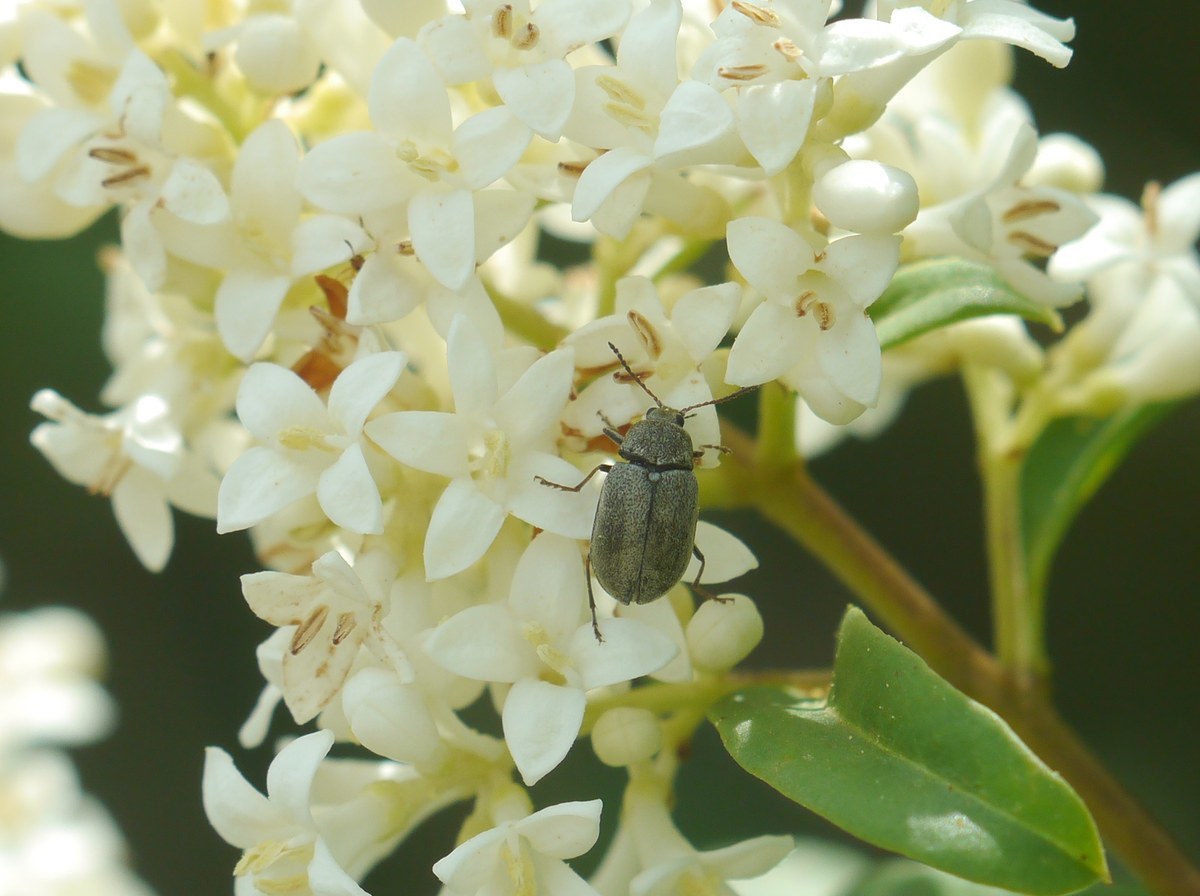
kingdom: Animalia
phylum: Arthropoda
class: Insecta
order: Coleoptera
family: Mycteridae
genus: Mycterus
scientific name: Mycterus tibialis
